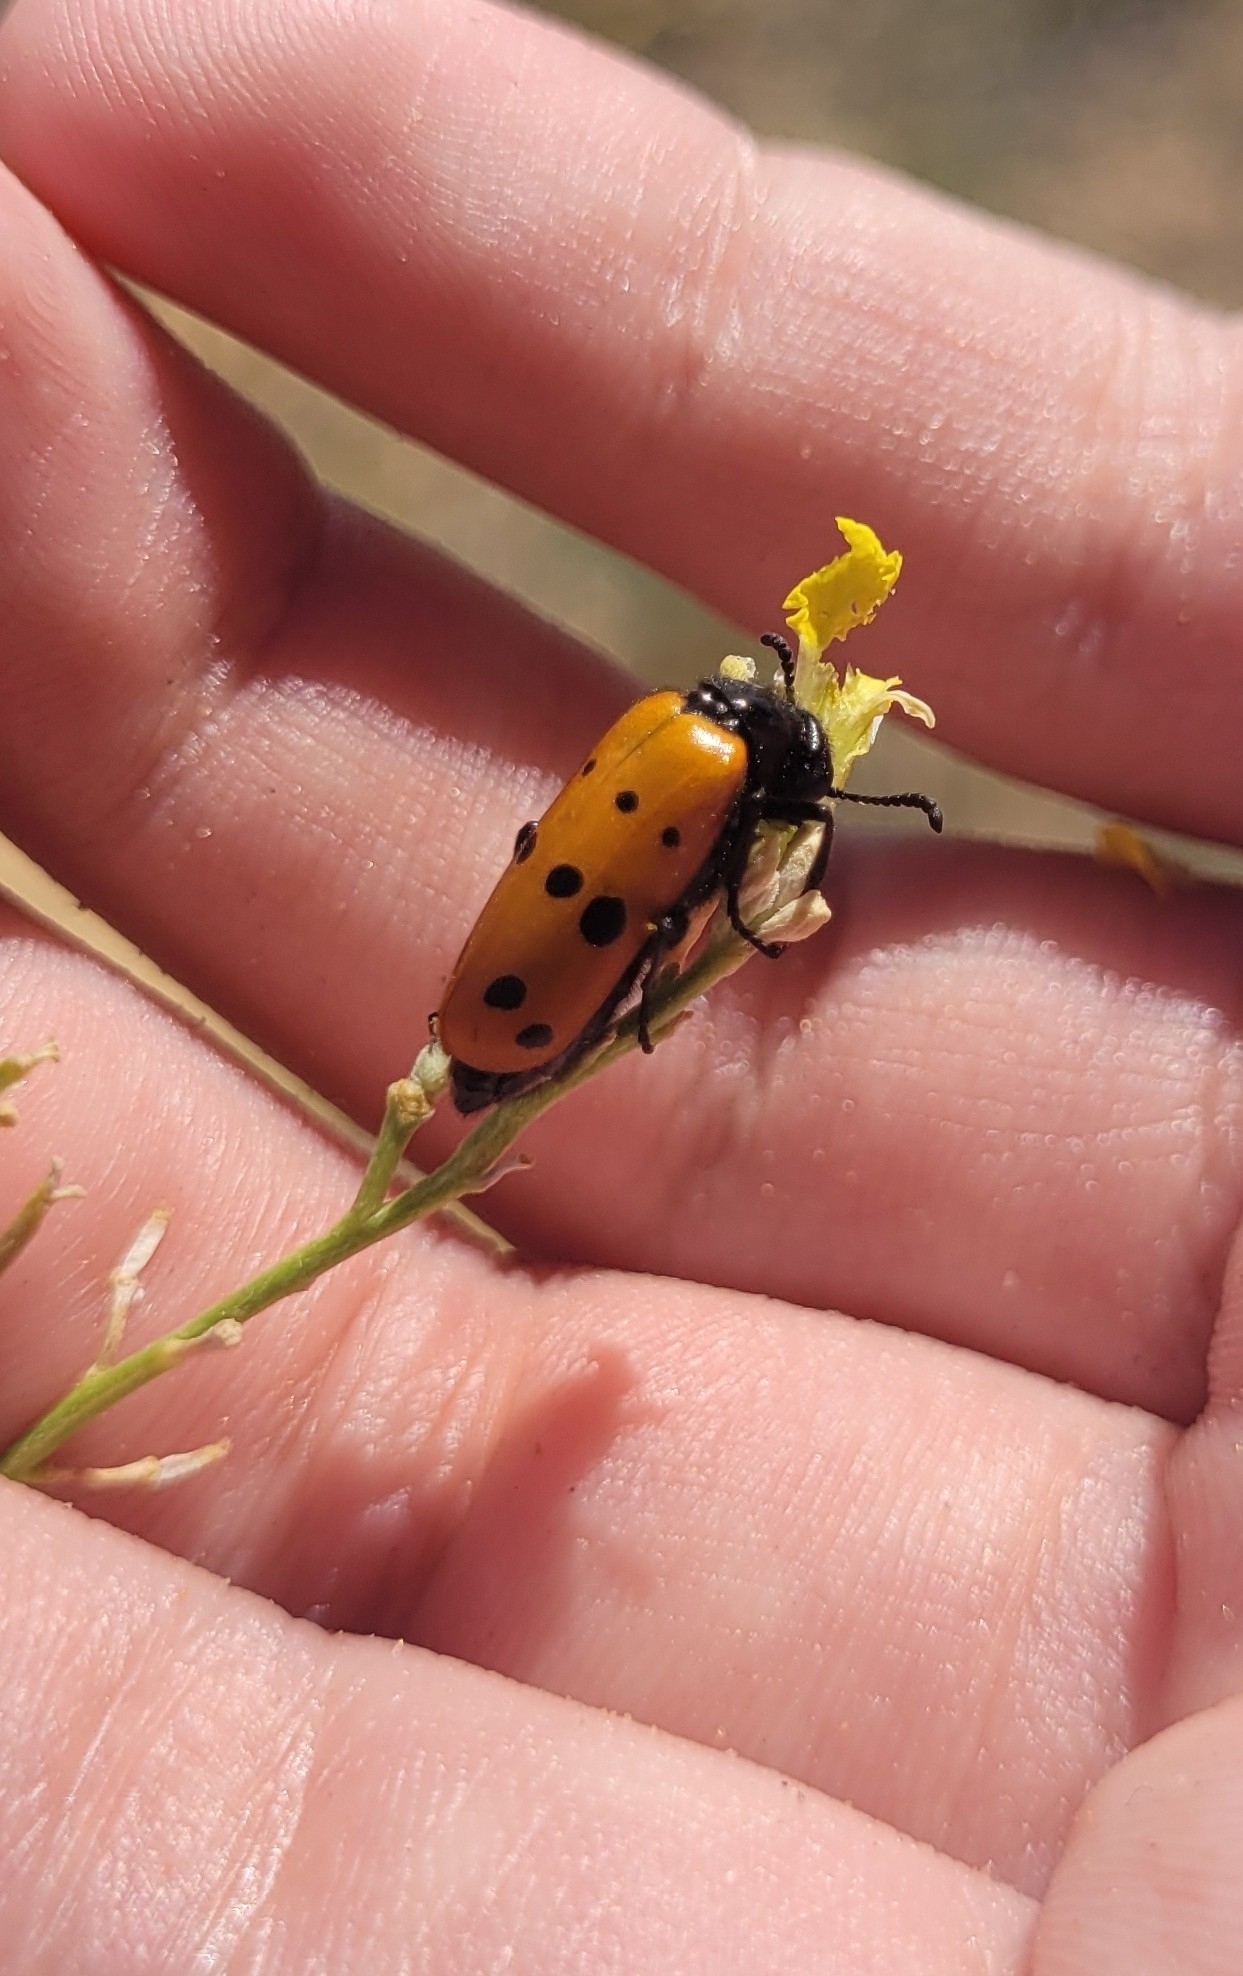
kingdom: Animalia
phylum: Arthropoda
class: Insecta
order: Coleoptera
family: Meloidae
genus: Mylabris
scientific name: Mylabris crocata
